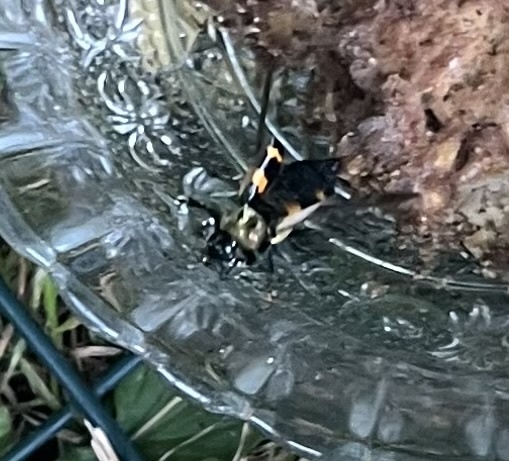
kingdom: Animalia
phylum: Arthropoda
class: Insecta
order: Coleoptera
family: Staphylinidae
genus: Nicrophorus
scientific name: Nicrophorus tomentosus
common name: Tomentose burying beetle
